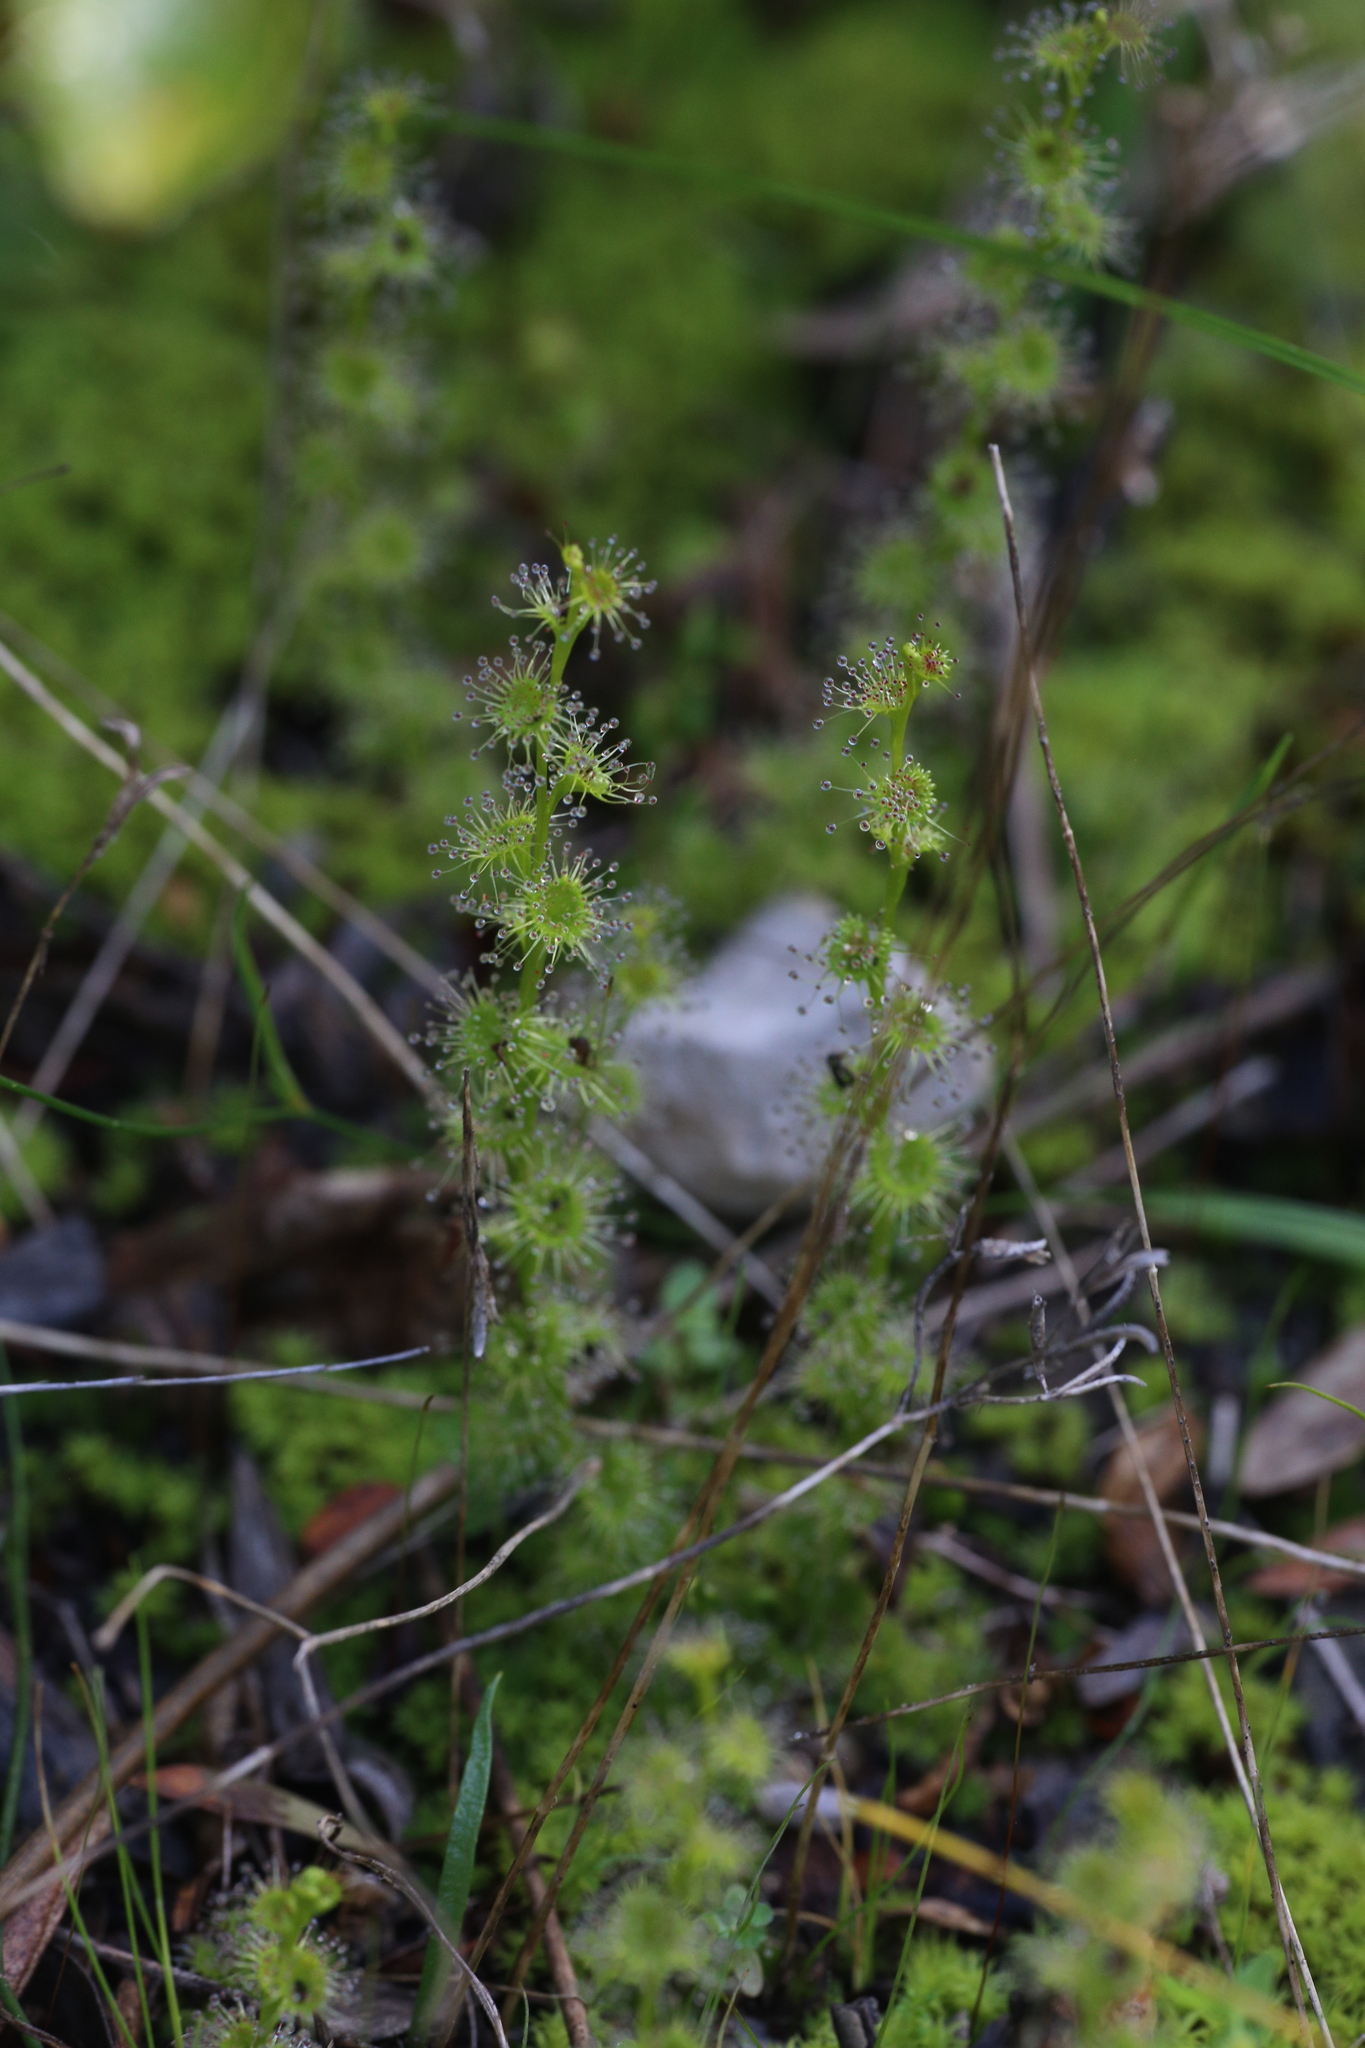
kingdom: Plantae
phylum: Tracheophyta
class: Magnoliopsida
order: Caryophyllales
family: Droseraceae
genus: Drosera
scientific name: Drosera ramellosa
